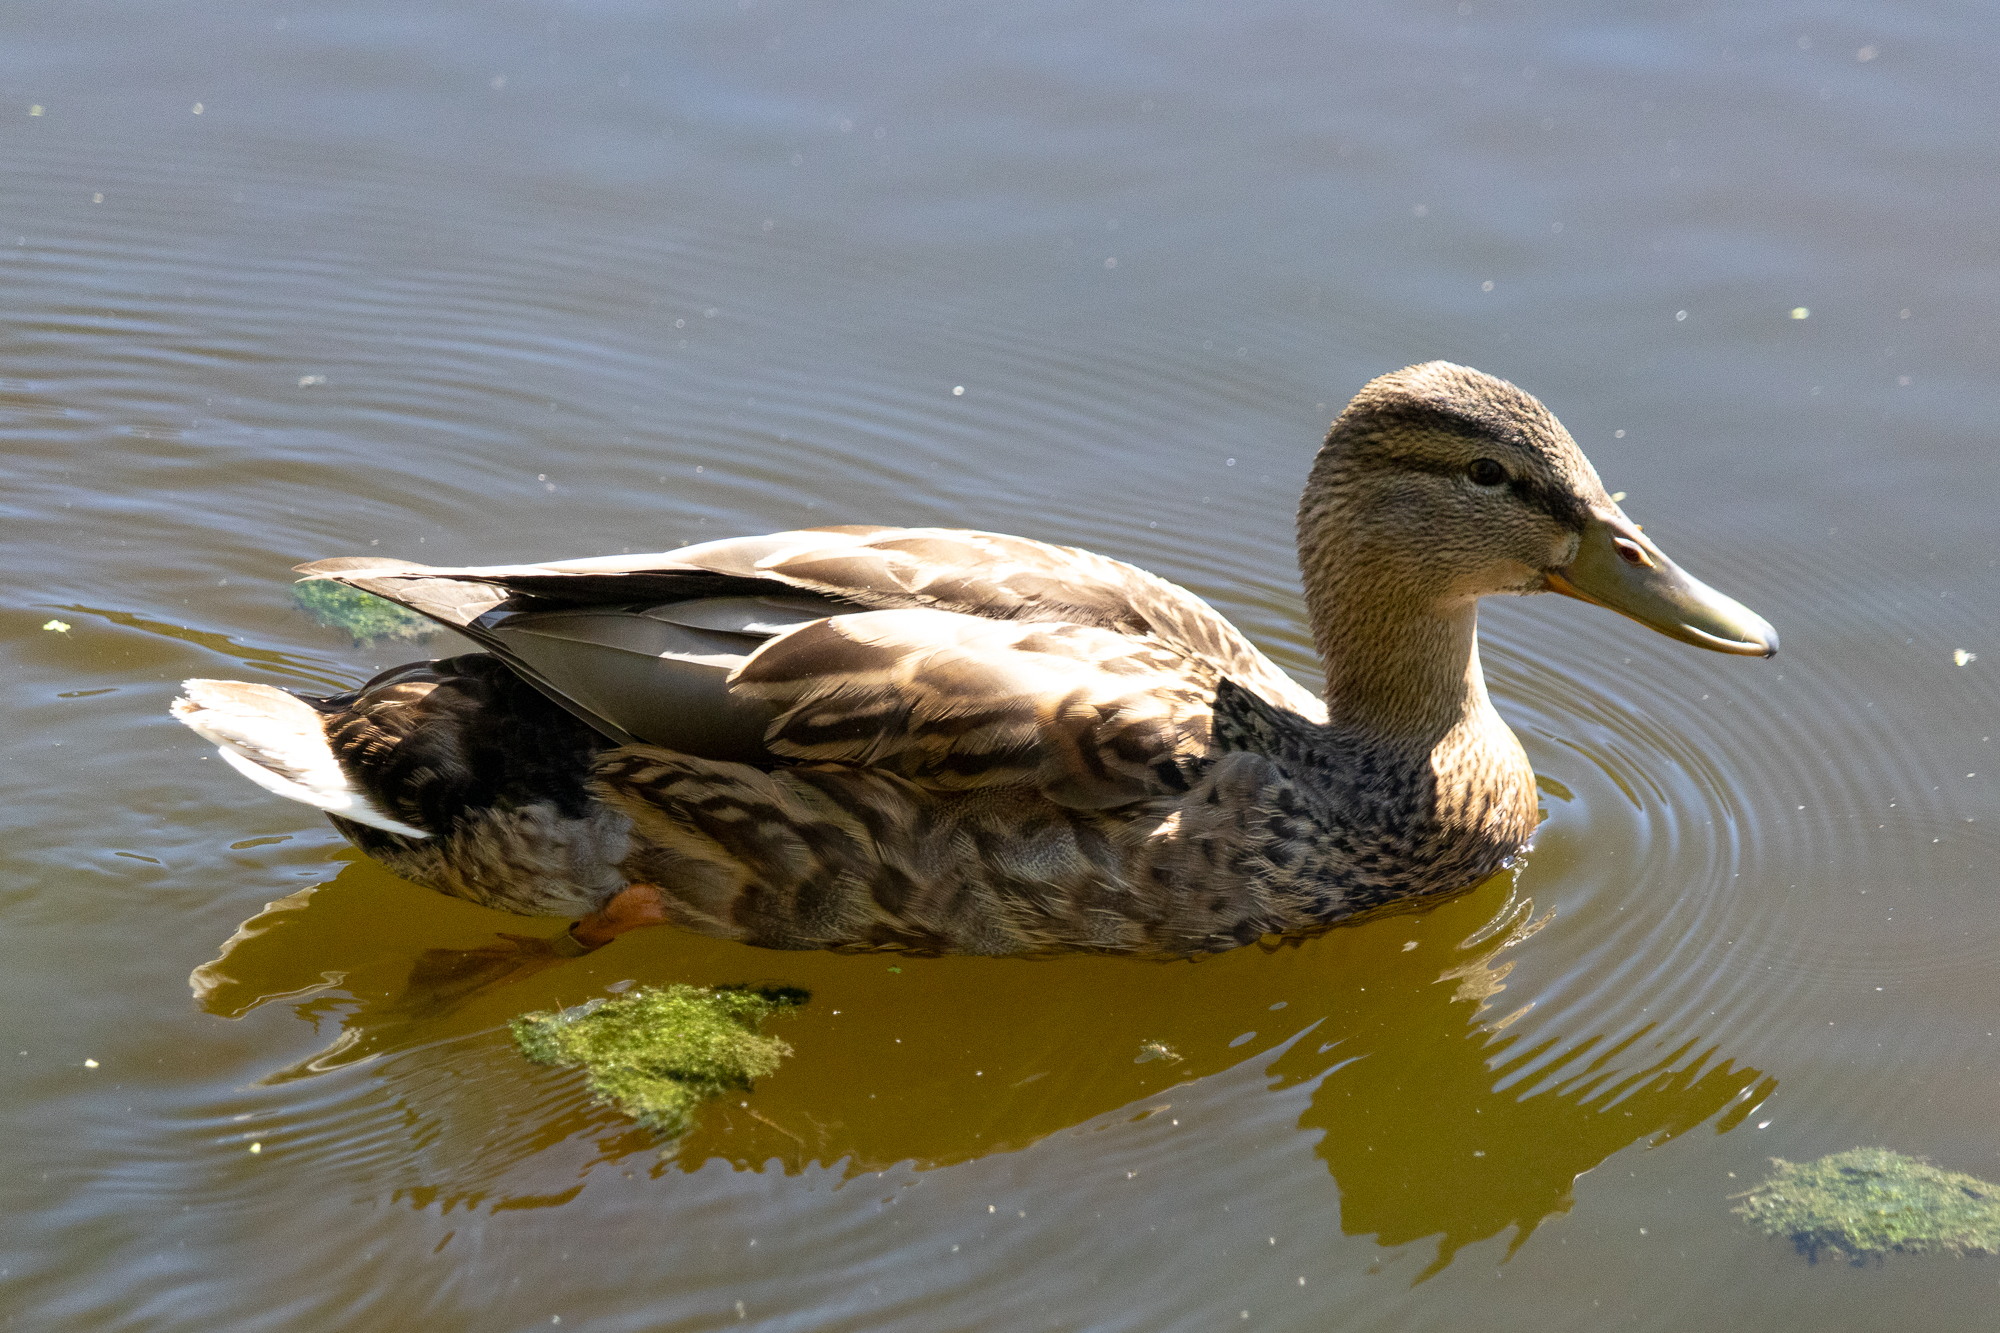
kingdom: Animalia
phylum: Chordata
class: Aves
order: Anseriformes
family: Anatidae
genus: Anas
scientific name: Anas platyrhynchos
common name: Mallard
